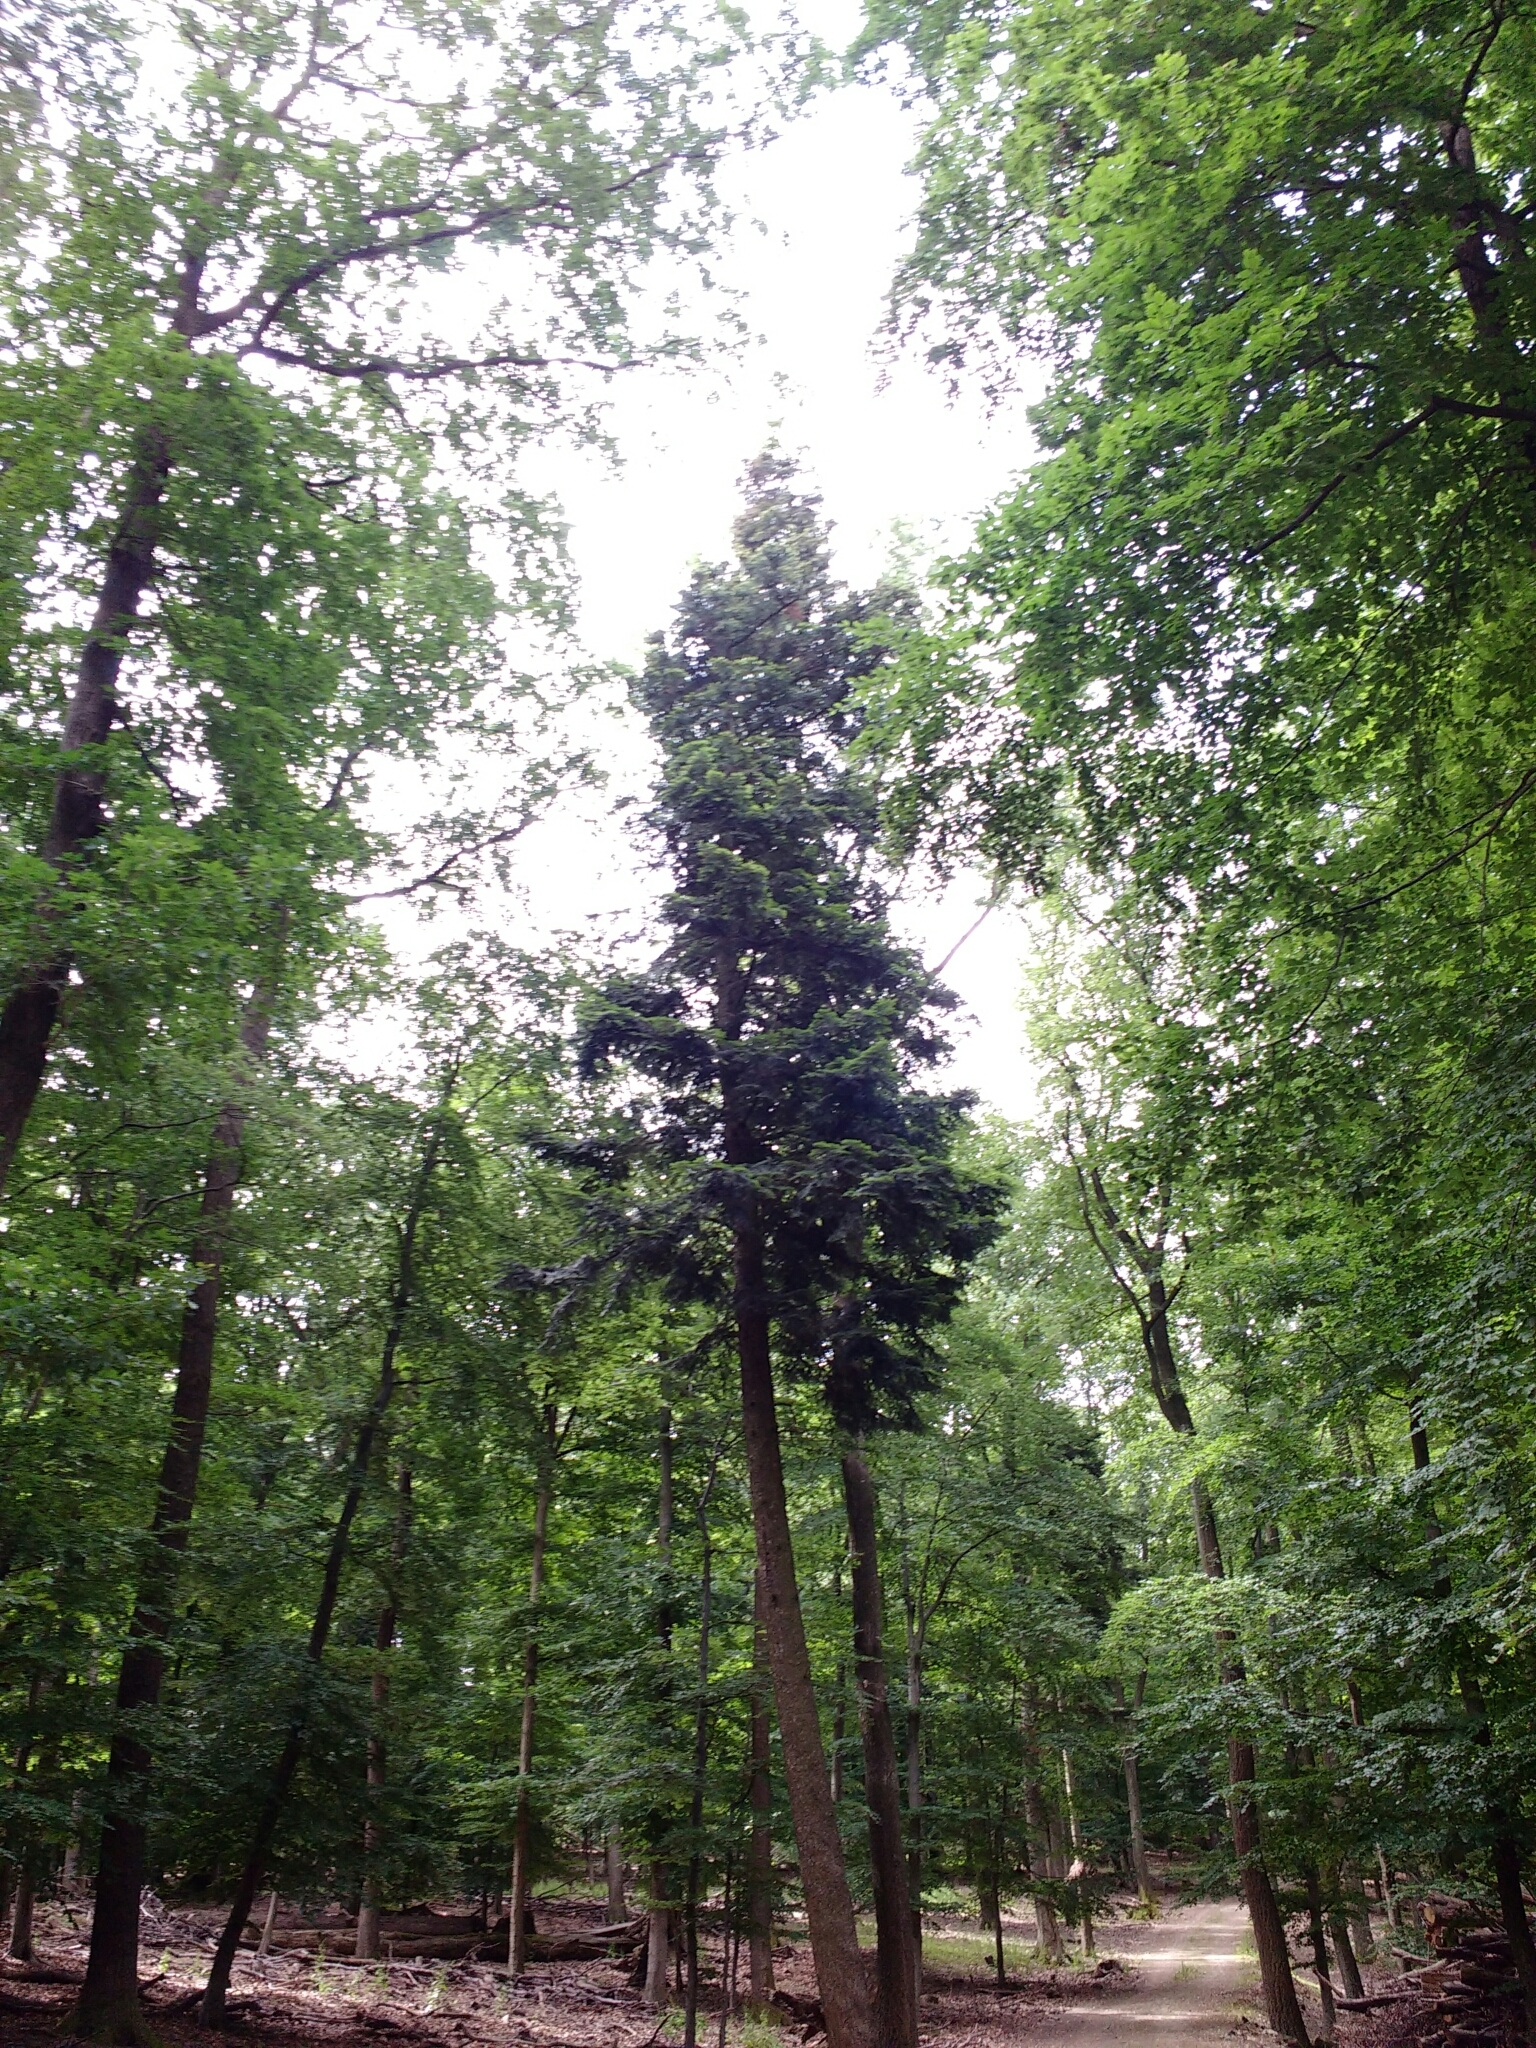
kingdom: Plantae
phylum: Tracheophyta
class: Pinopsida
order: Pinales
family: Pinaceae
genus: Abies
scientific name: Abies alba
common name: Silver fir
